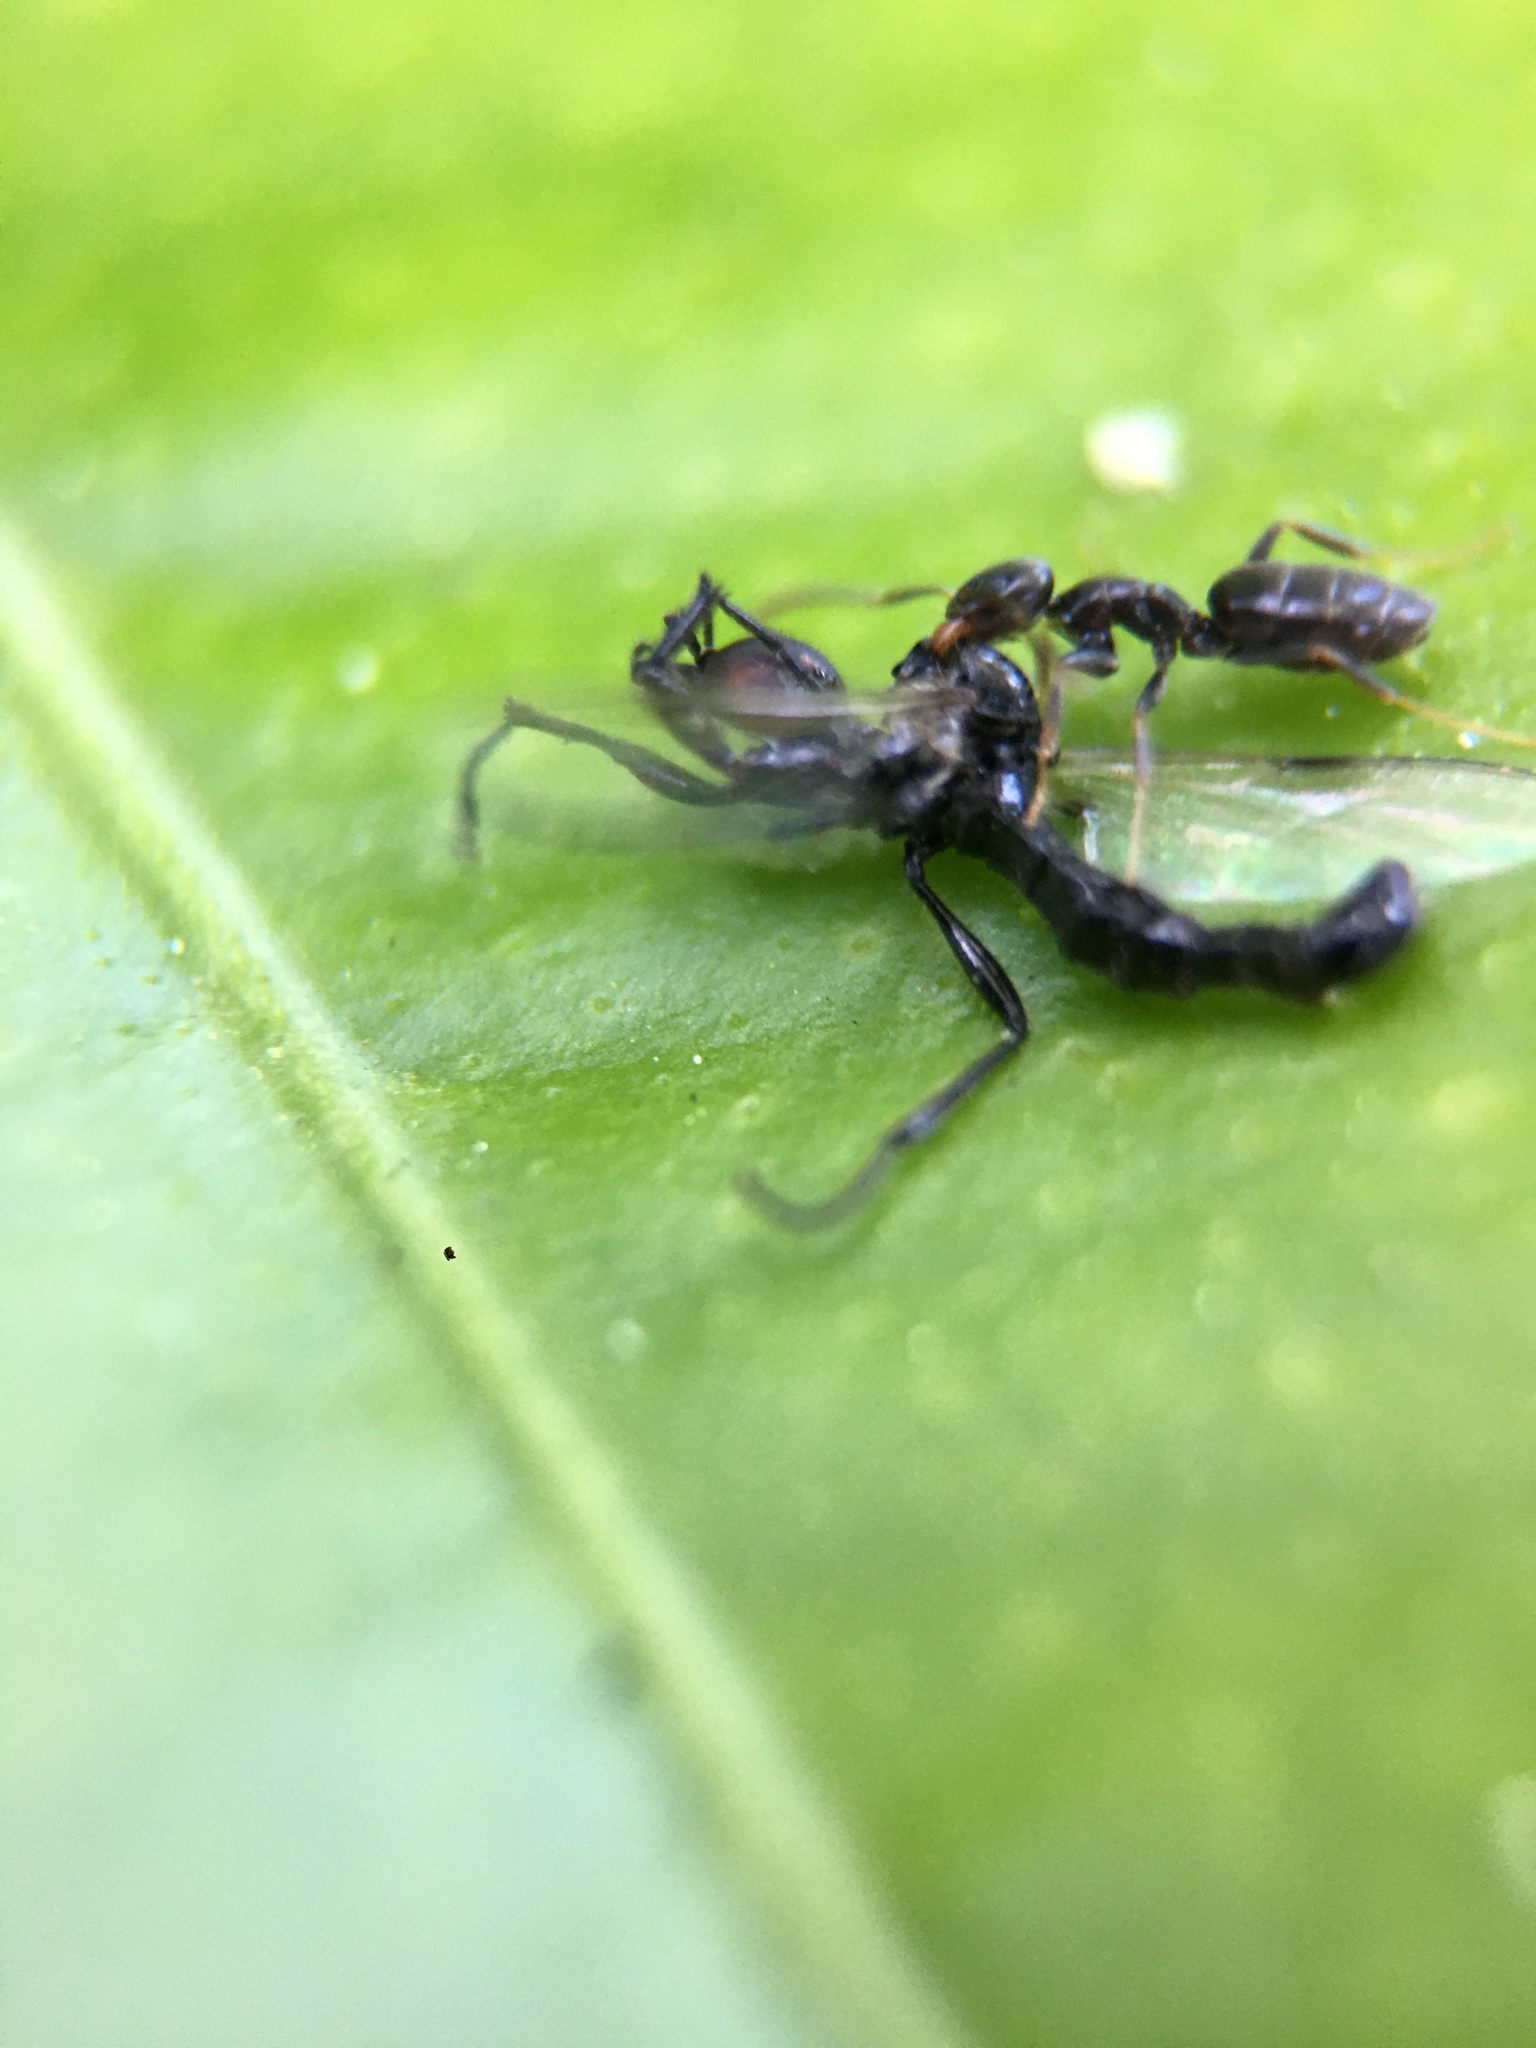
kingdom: Animalia
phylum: Arthropoda
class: Insecta
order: Hymenoptera
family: Formicidae
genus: Tapinoma
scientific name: Tapinoma sessile
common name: Odorous house ant
